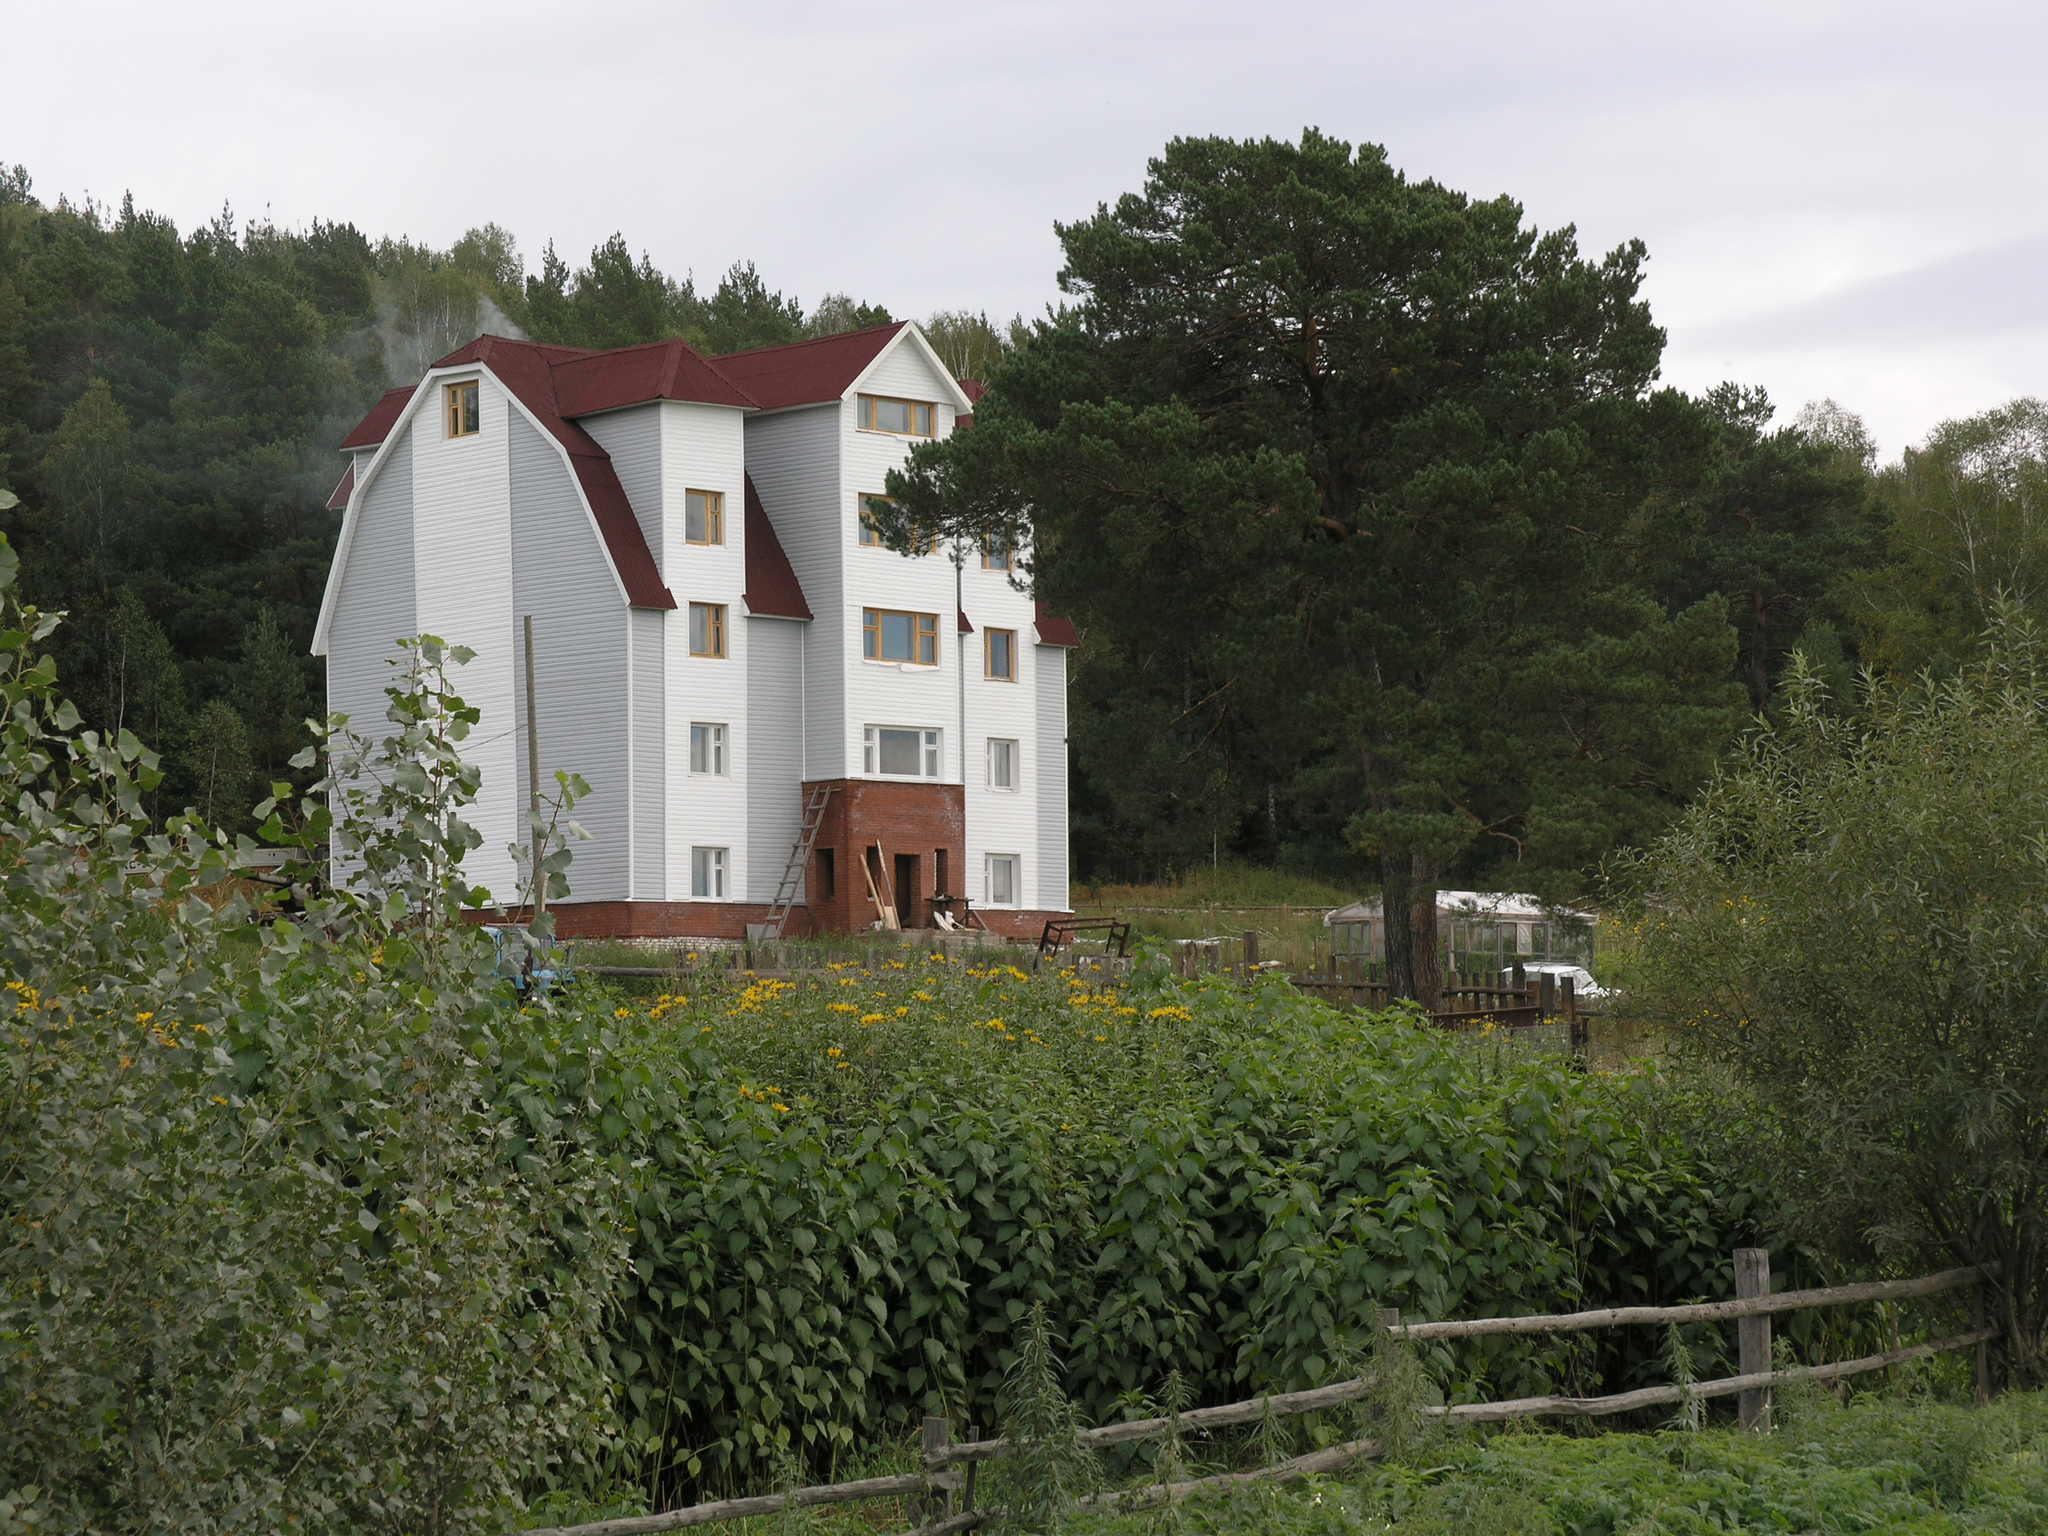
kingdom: Plantae
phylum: Tracheophyta
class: Pinopsida
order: Pinales
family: Pinaceae
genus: Pinus
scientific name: Pinus sylvestris
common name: Scots pine
